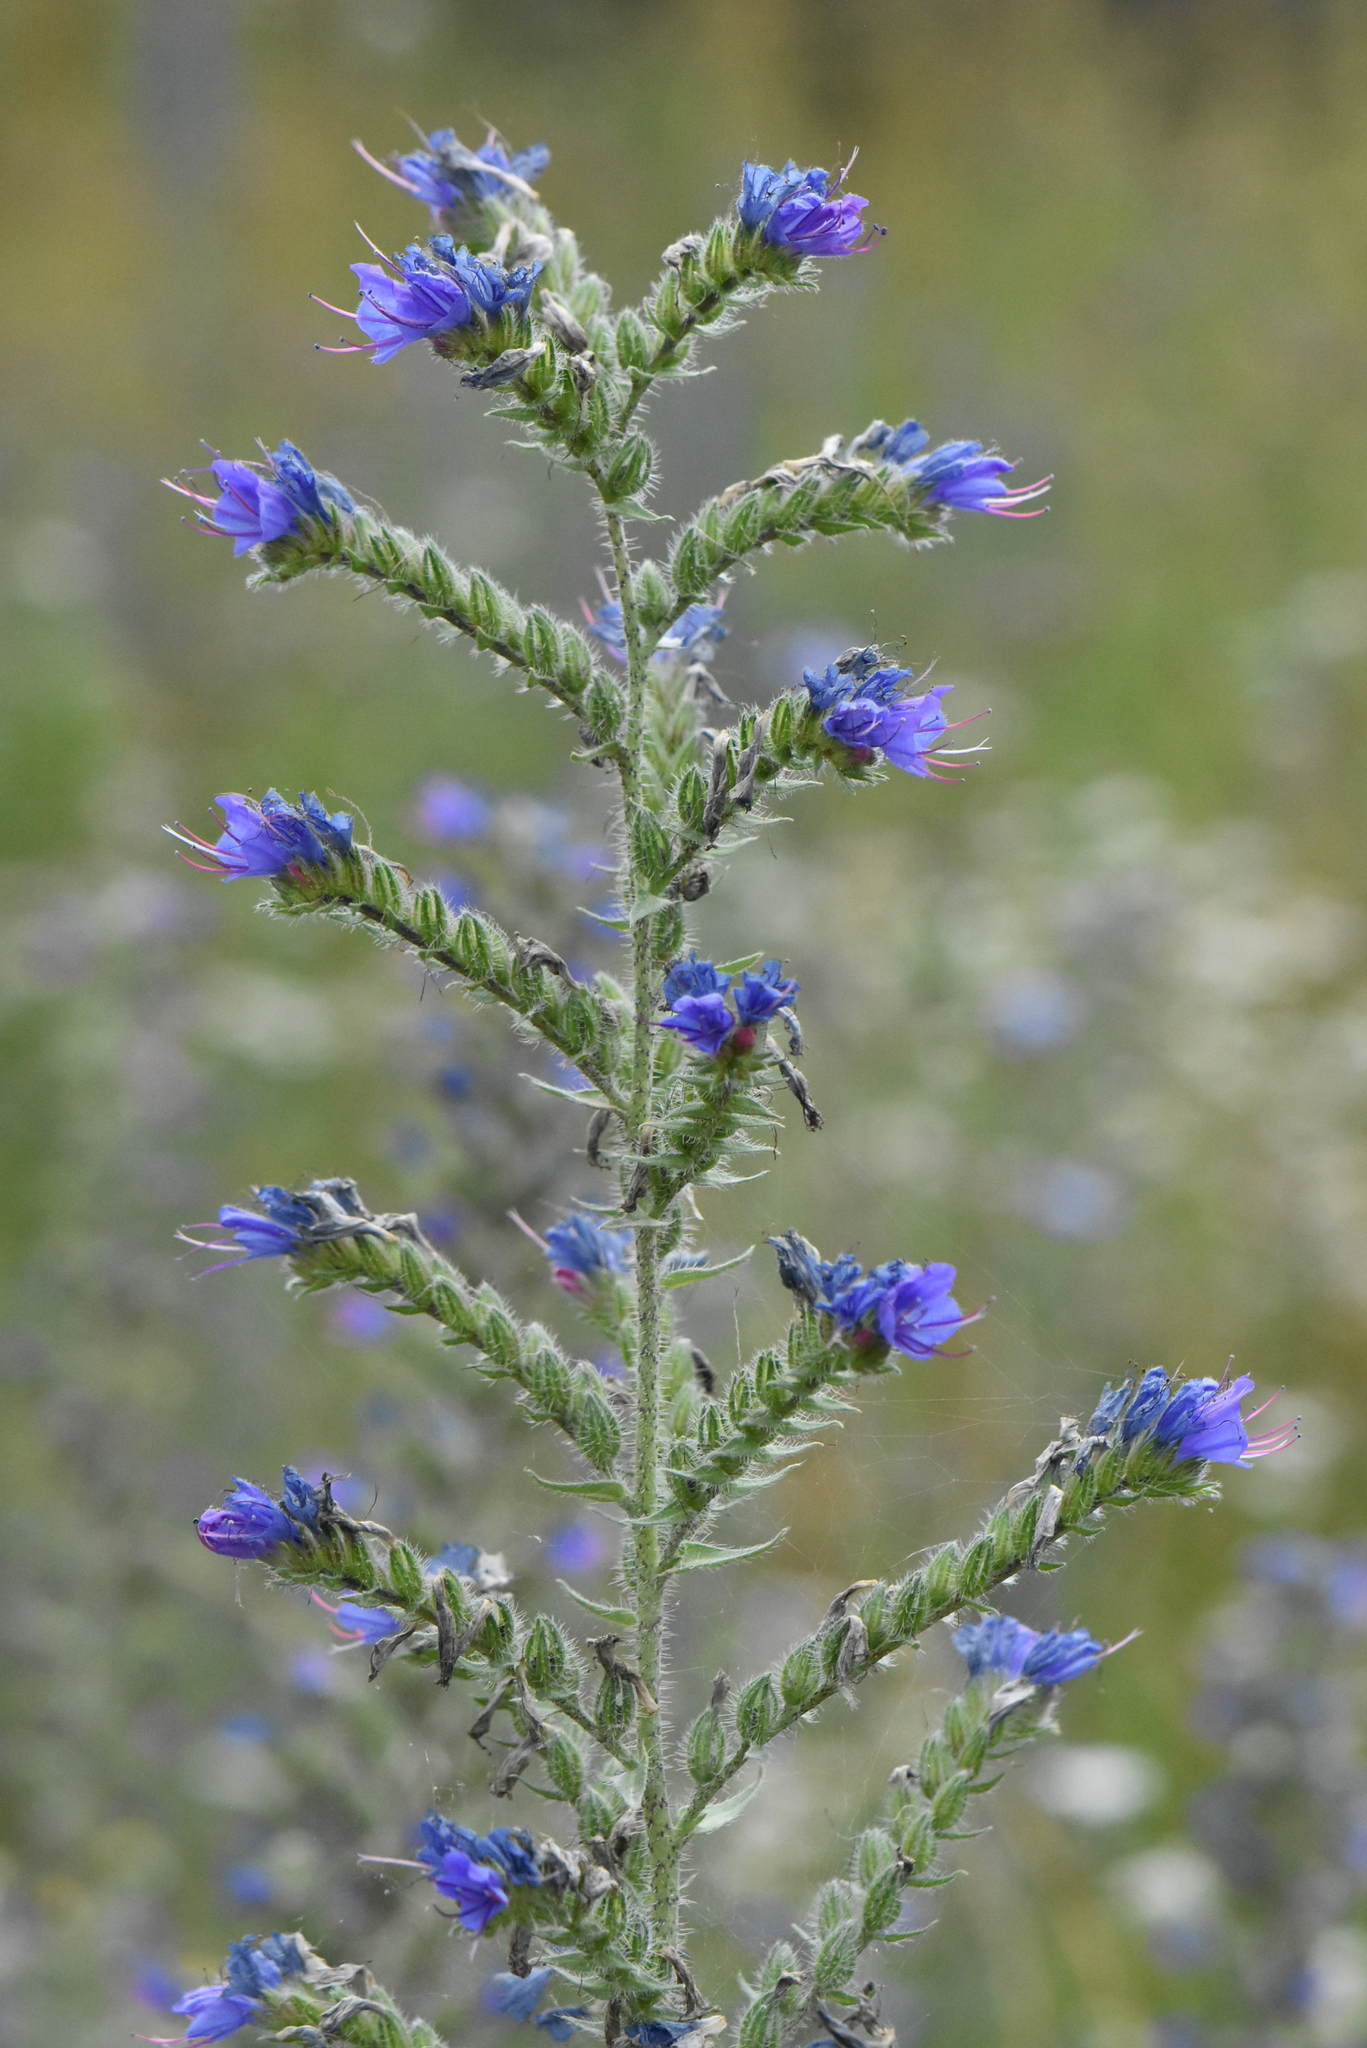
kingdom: Plantae
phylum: Tracheophyta
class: Magnoliopsida
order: Boraginales
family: Boraginaceae
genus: Echium
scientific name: Echium vulgare
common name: Common viper's bugloss
